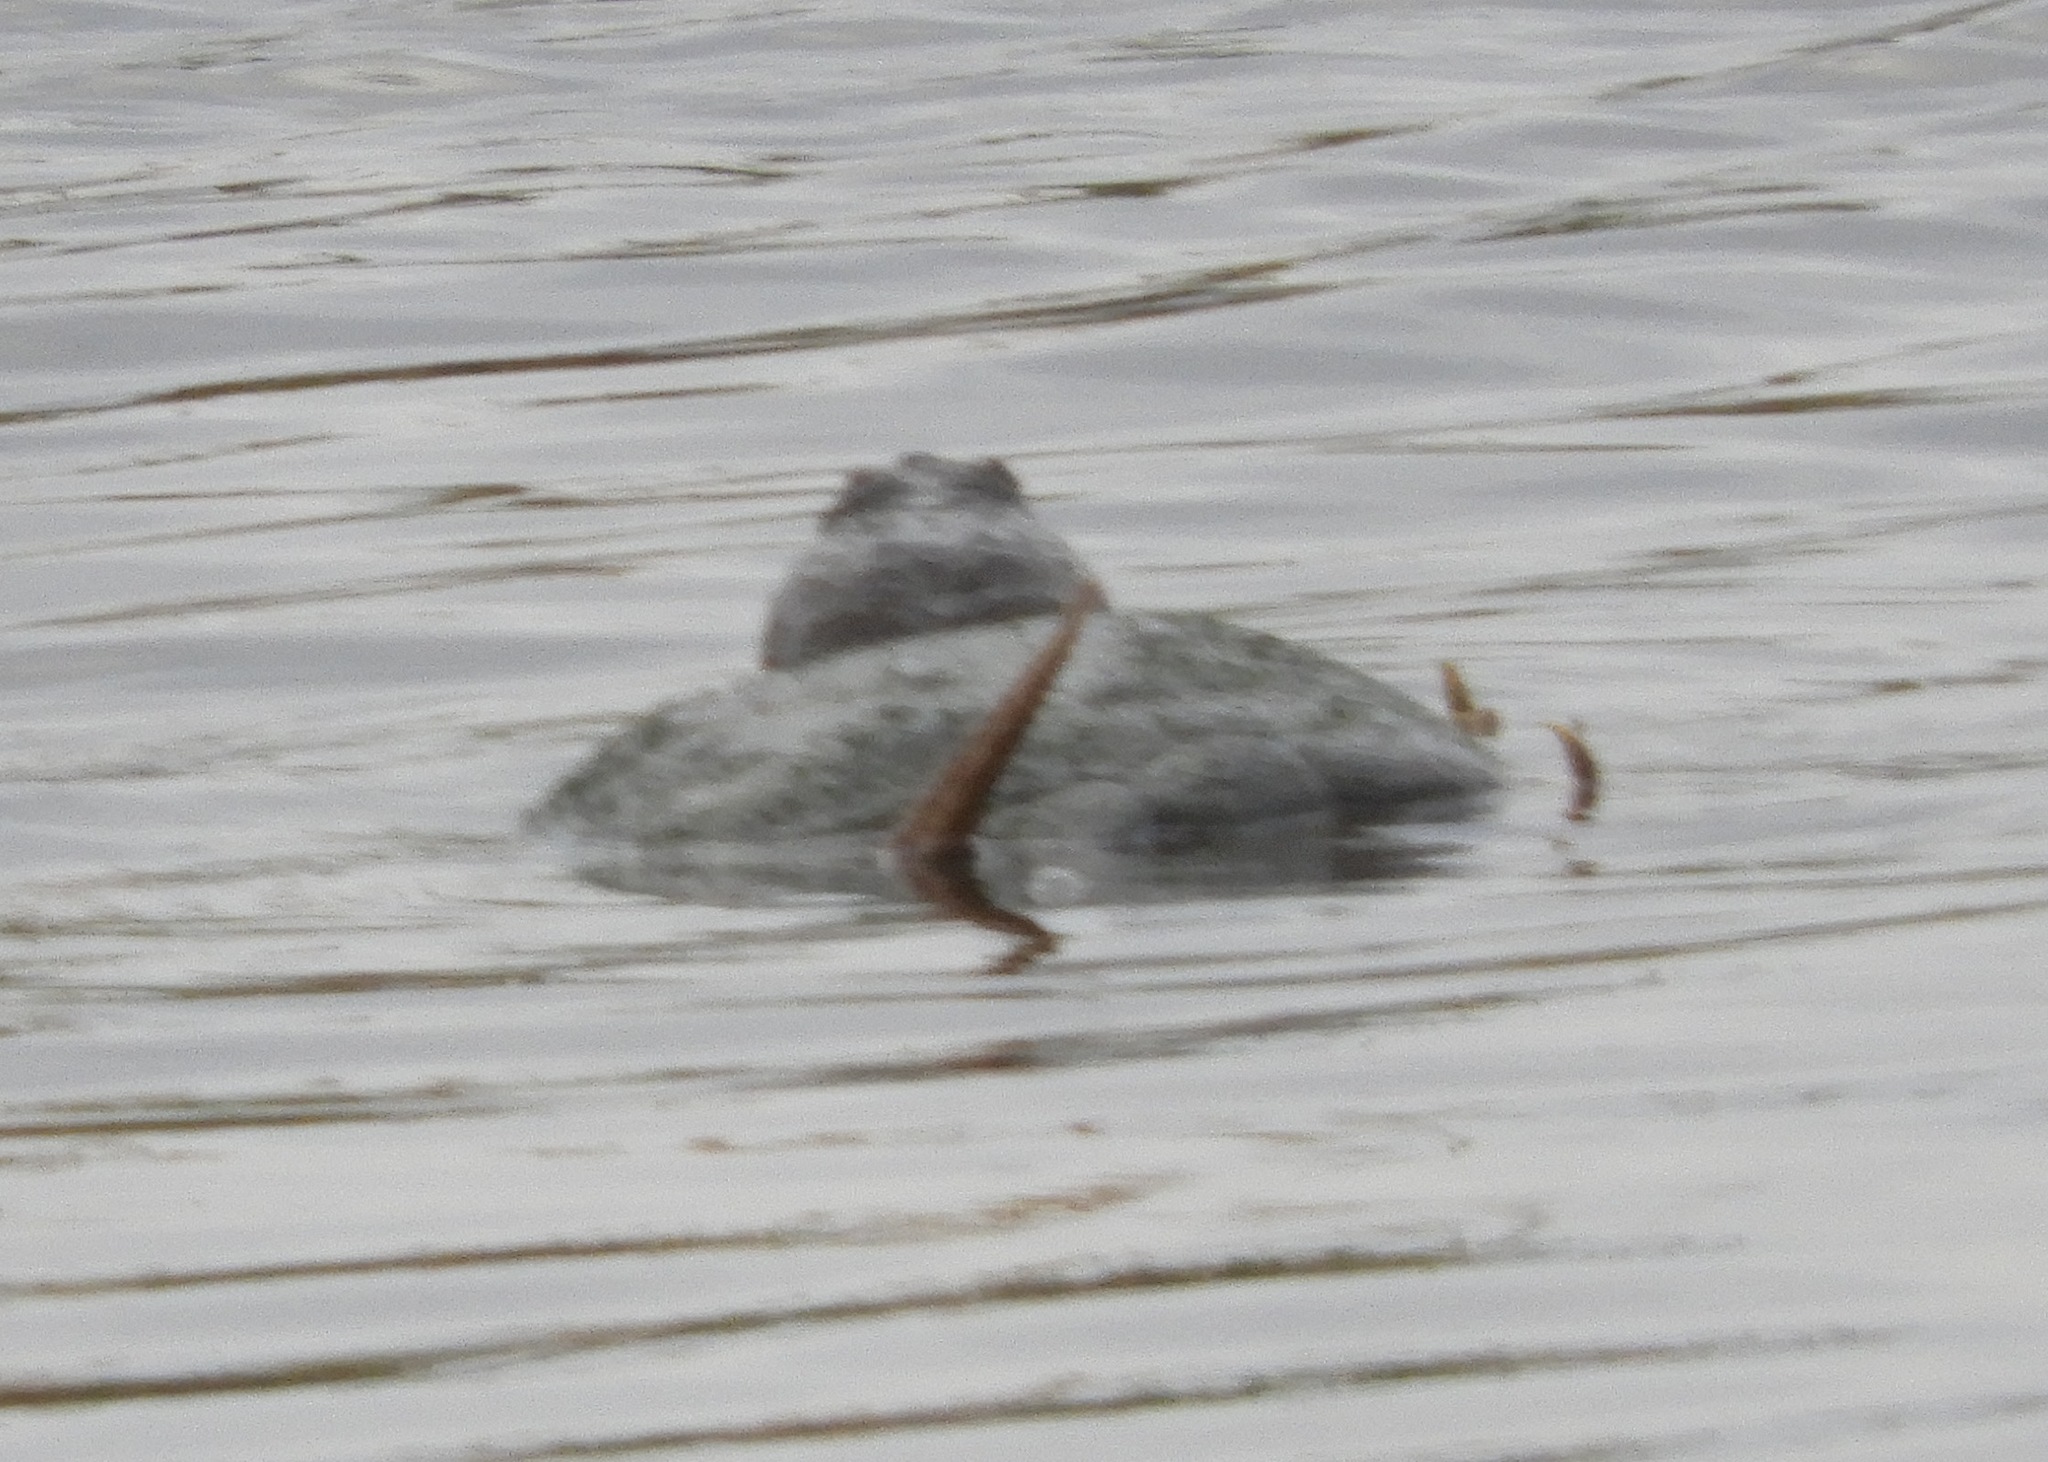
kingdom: Animalia
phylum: Chordata
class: Testudines
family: Chelydridae
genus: Chelydra
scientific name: Chelydra serpentina
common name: Common snapping turtle
